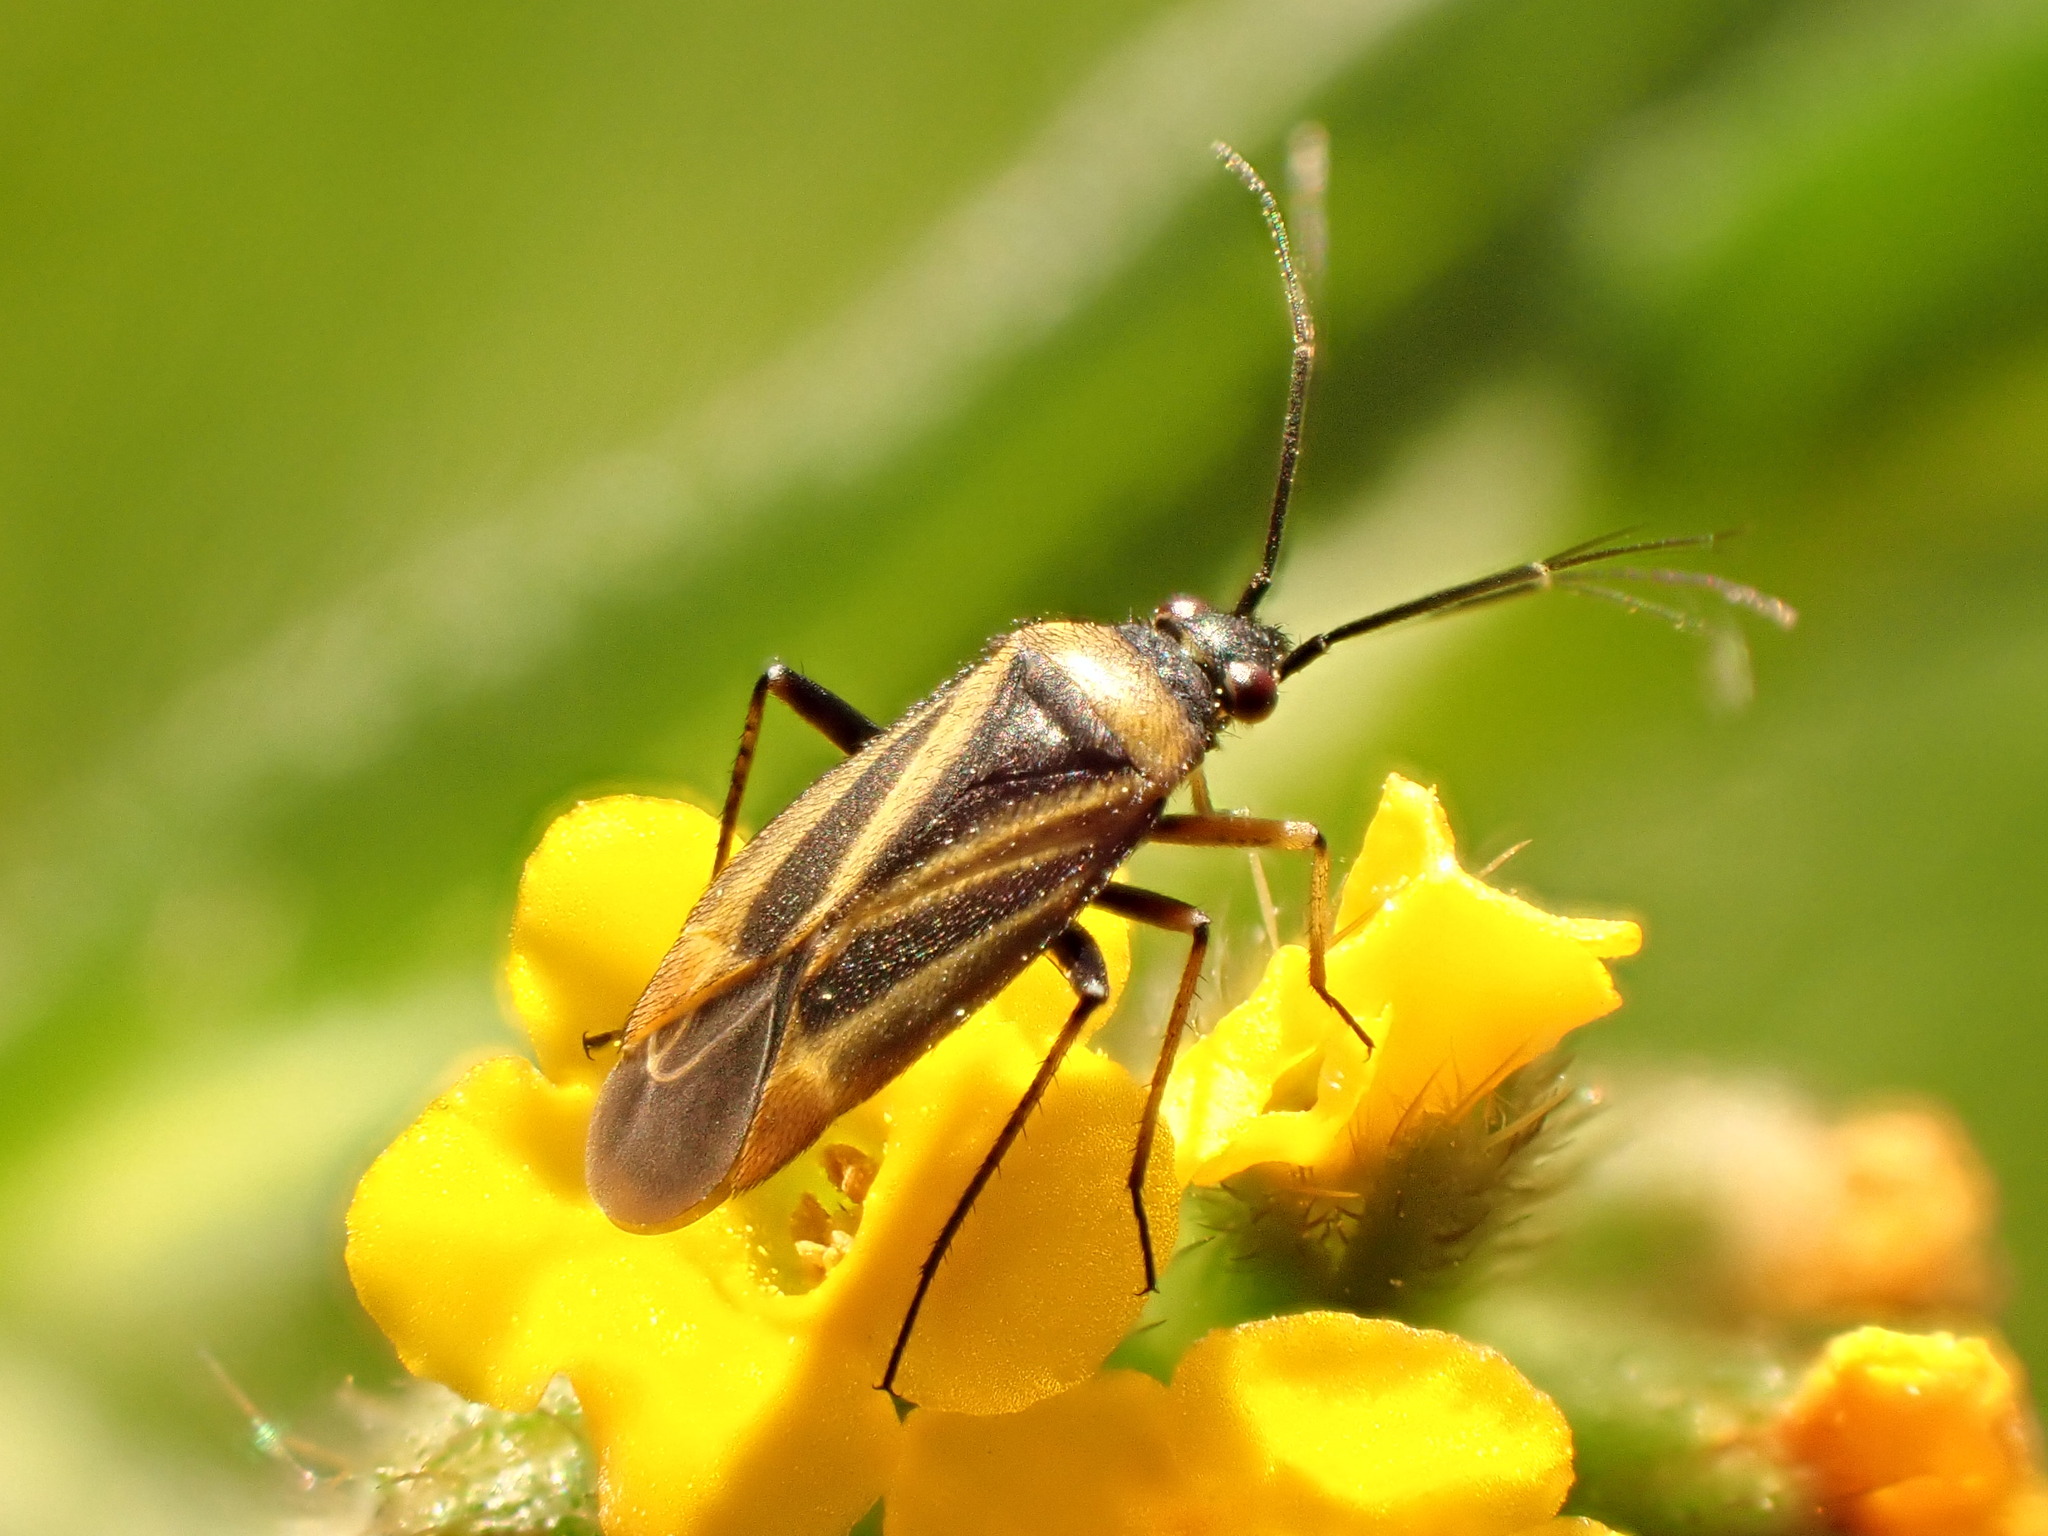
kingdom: Animalia
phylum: Arthropoda
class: Insecta
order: Hemiptera
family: Miridae
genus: Plagiognathus
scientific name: Plagiognathus moerens
